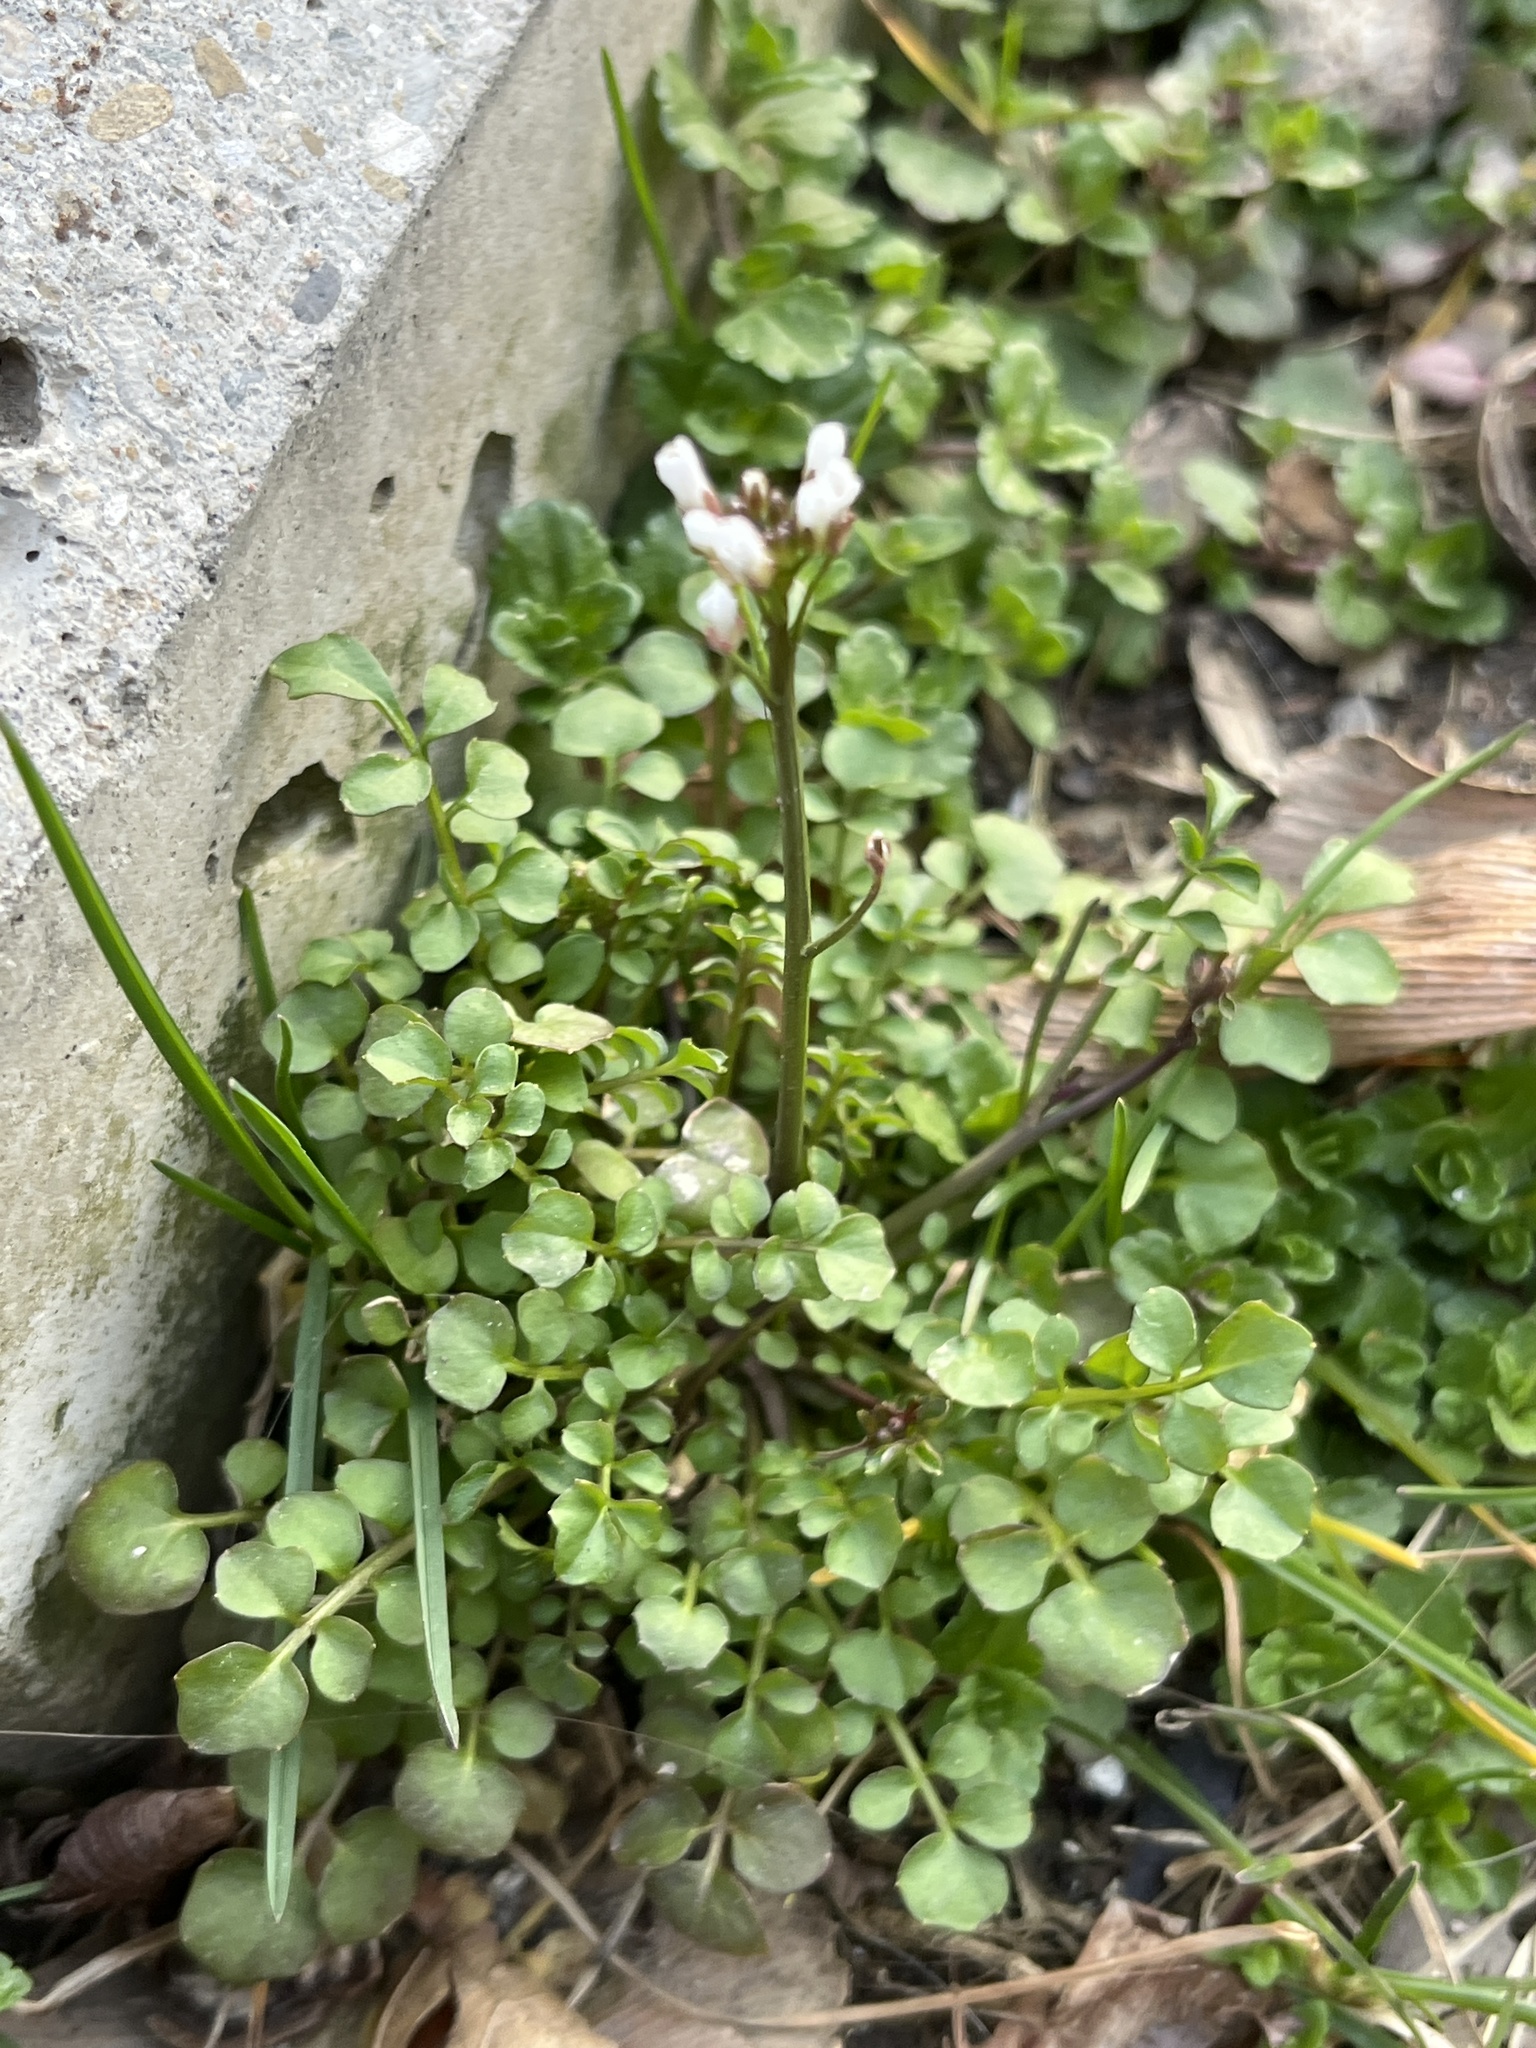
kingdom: Plantae
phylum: Tracheophyta
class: Magnoliopsida
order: Brassicales
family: Brassicaceae
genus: Cardamine
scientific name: Cardamine hirsuta
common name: Hairy bittercress
